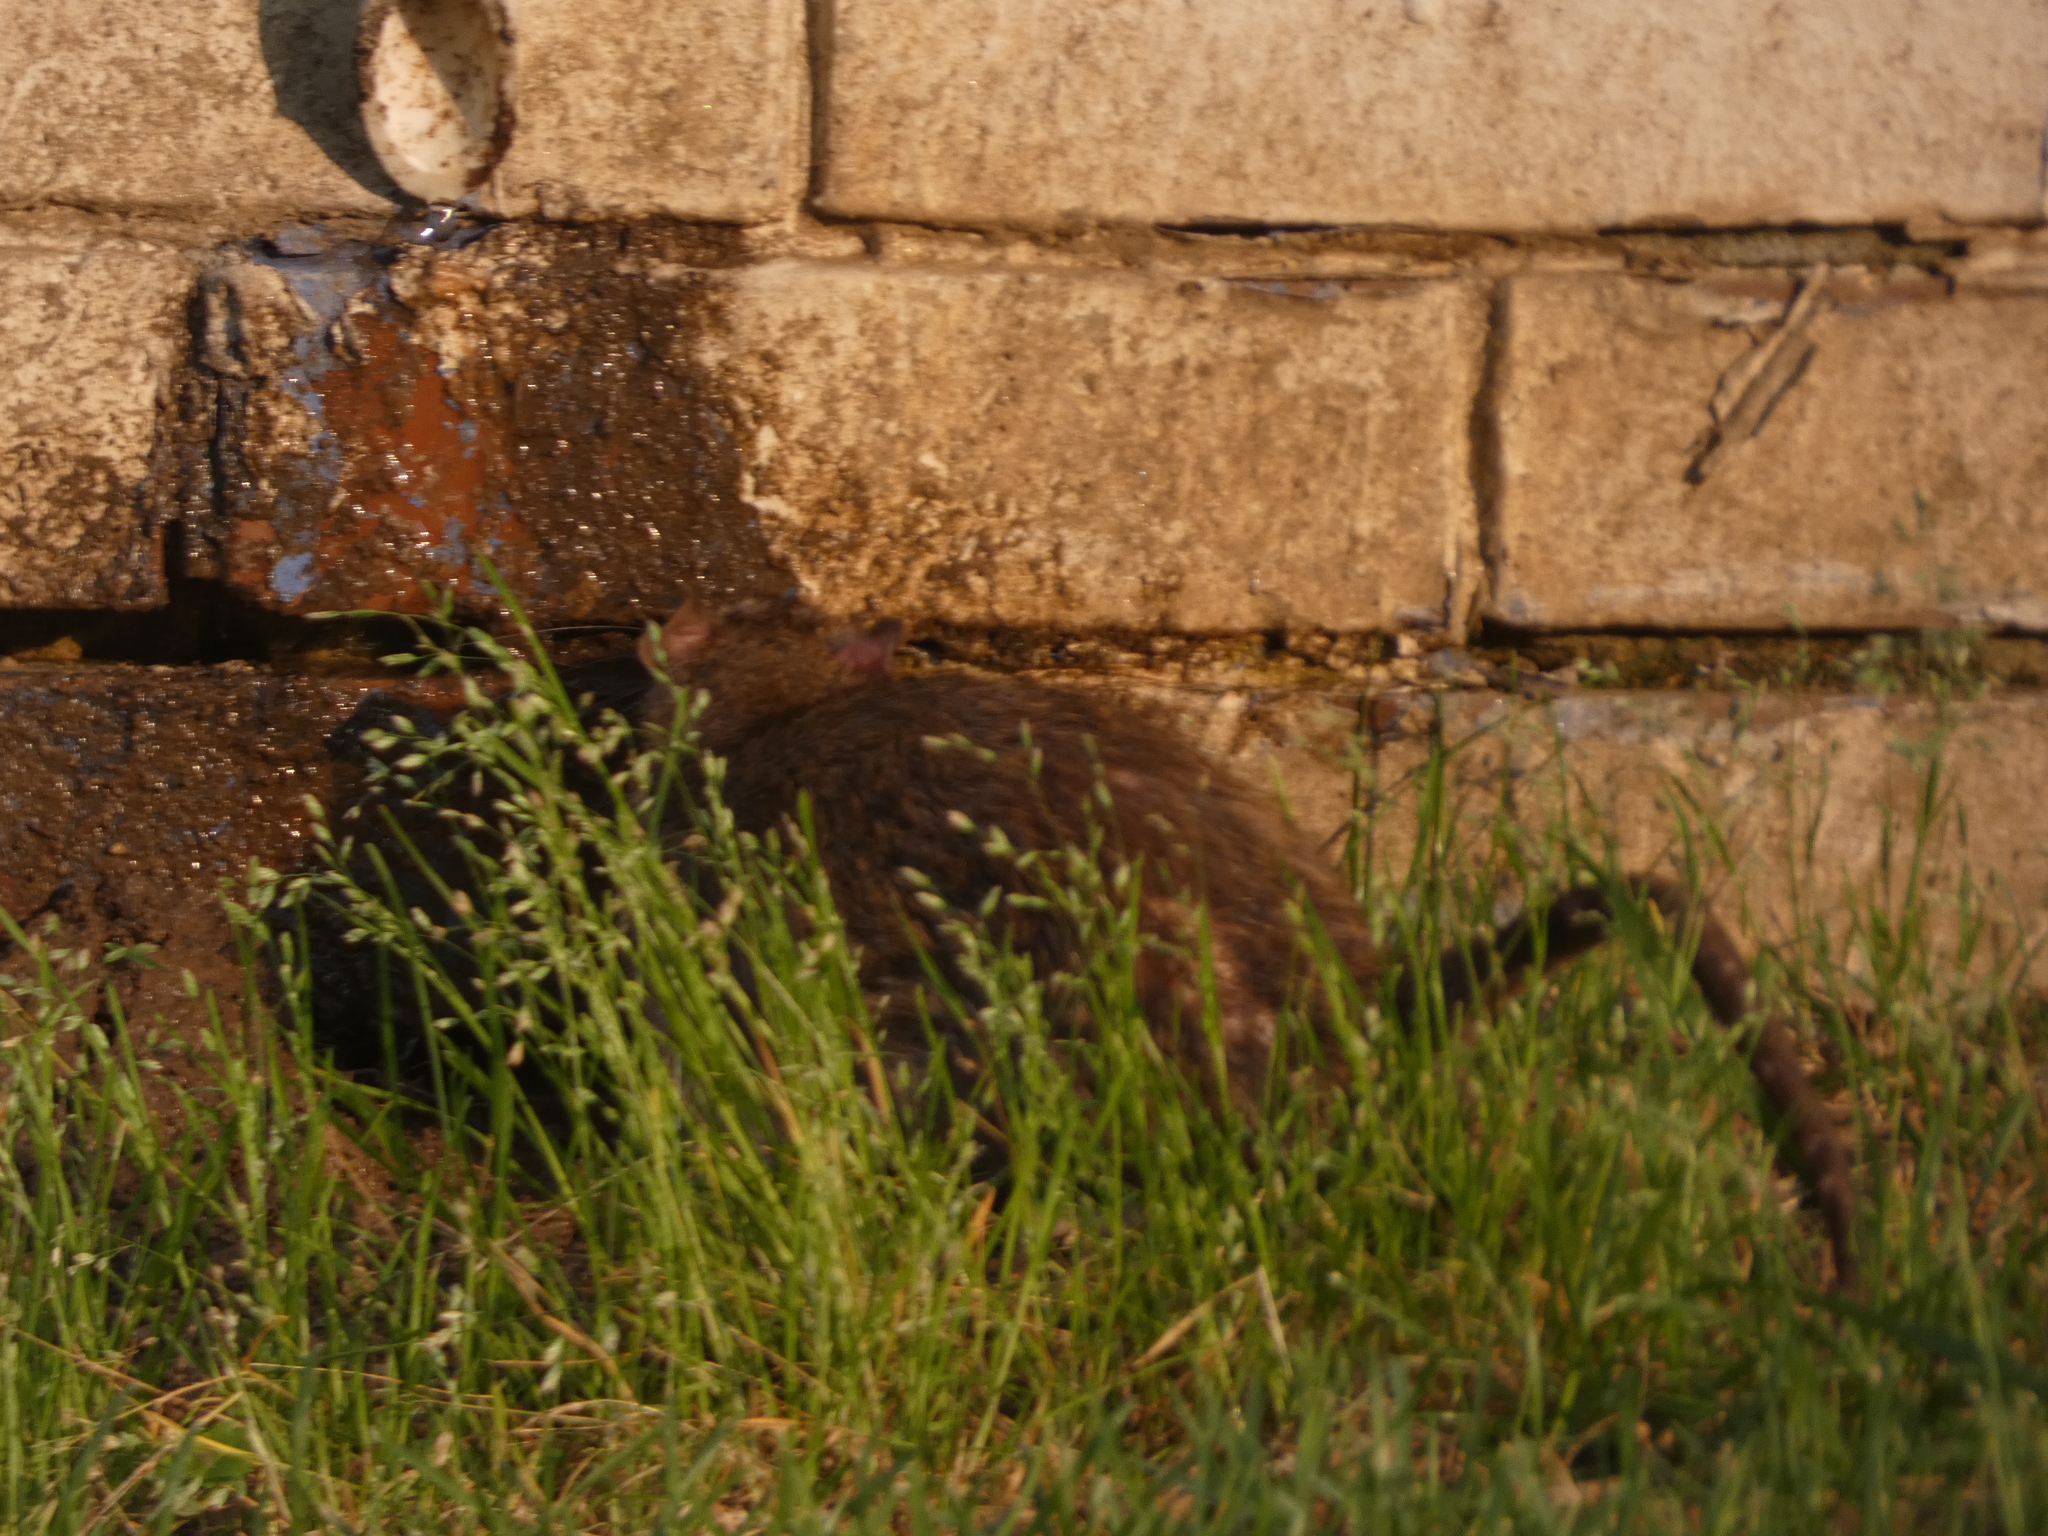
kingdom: Animalia
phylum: Chordata
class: Mammalia
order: Rodentia
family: Muridae
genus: Rattus
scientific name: Rattus norvegicus
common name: Brown rat
